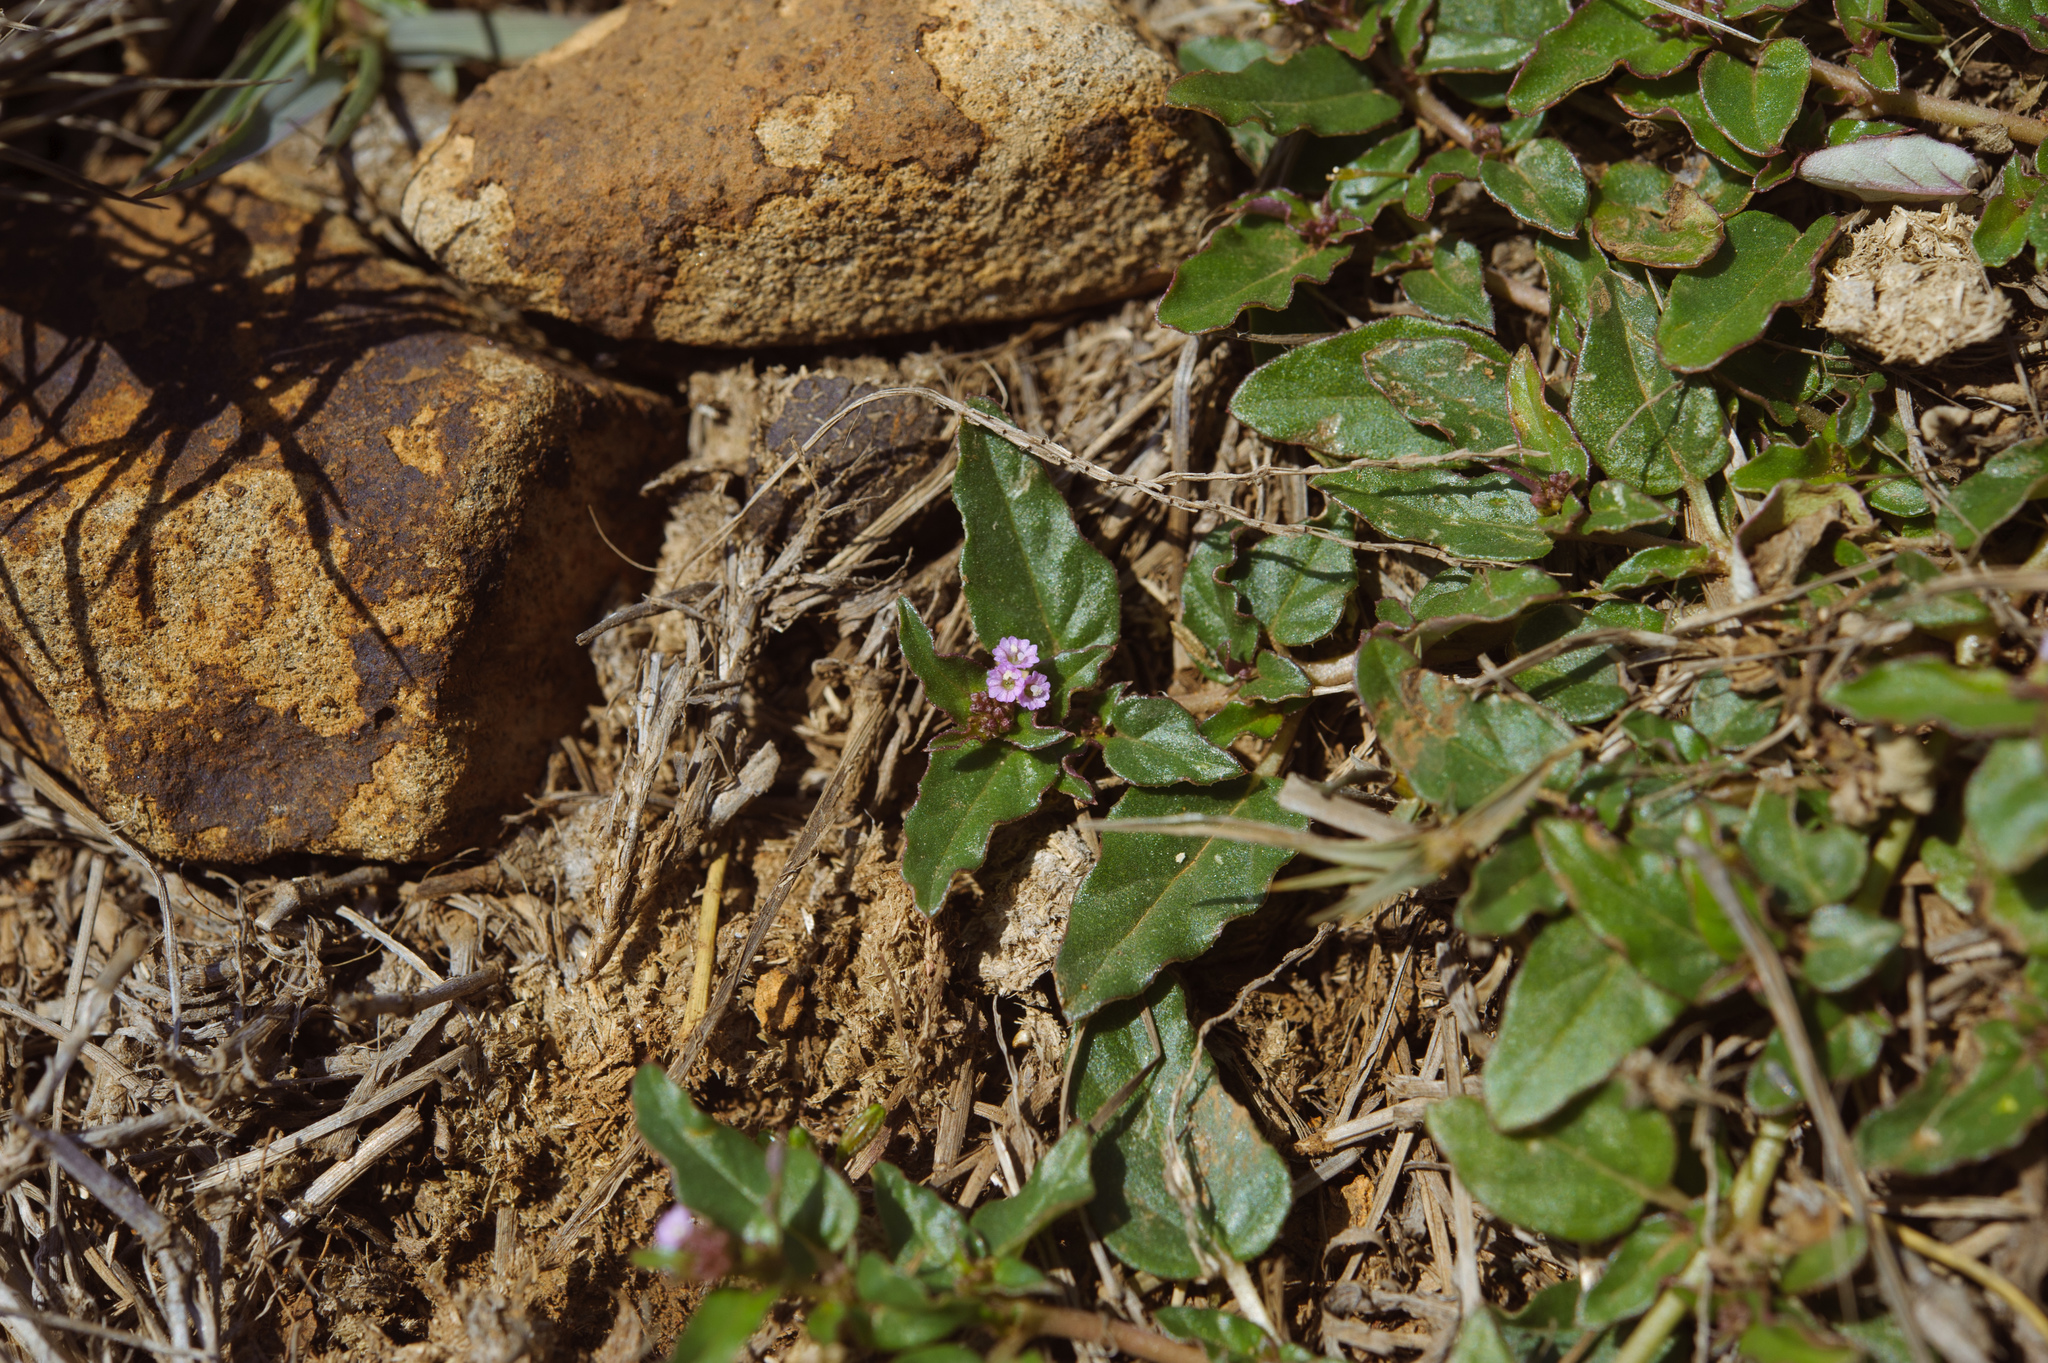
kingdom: Plantae
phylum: Tracheophyta
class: Magnoliopsida
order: Caryophyllales
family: Nyctaginaceae
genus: Boerhavia
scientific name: Boerhavia glabrata
